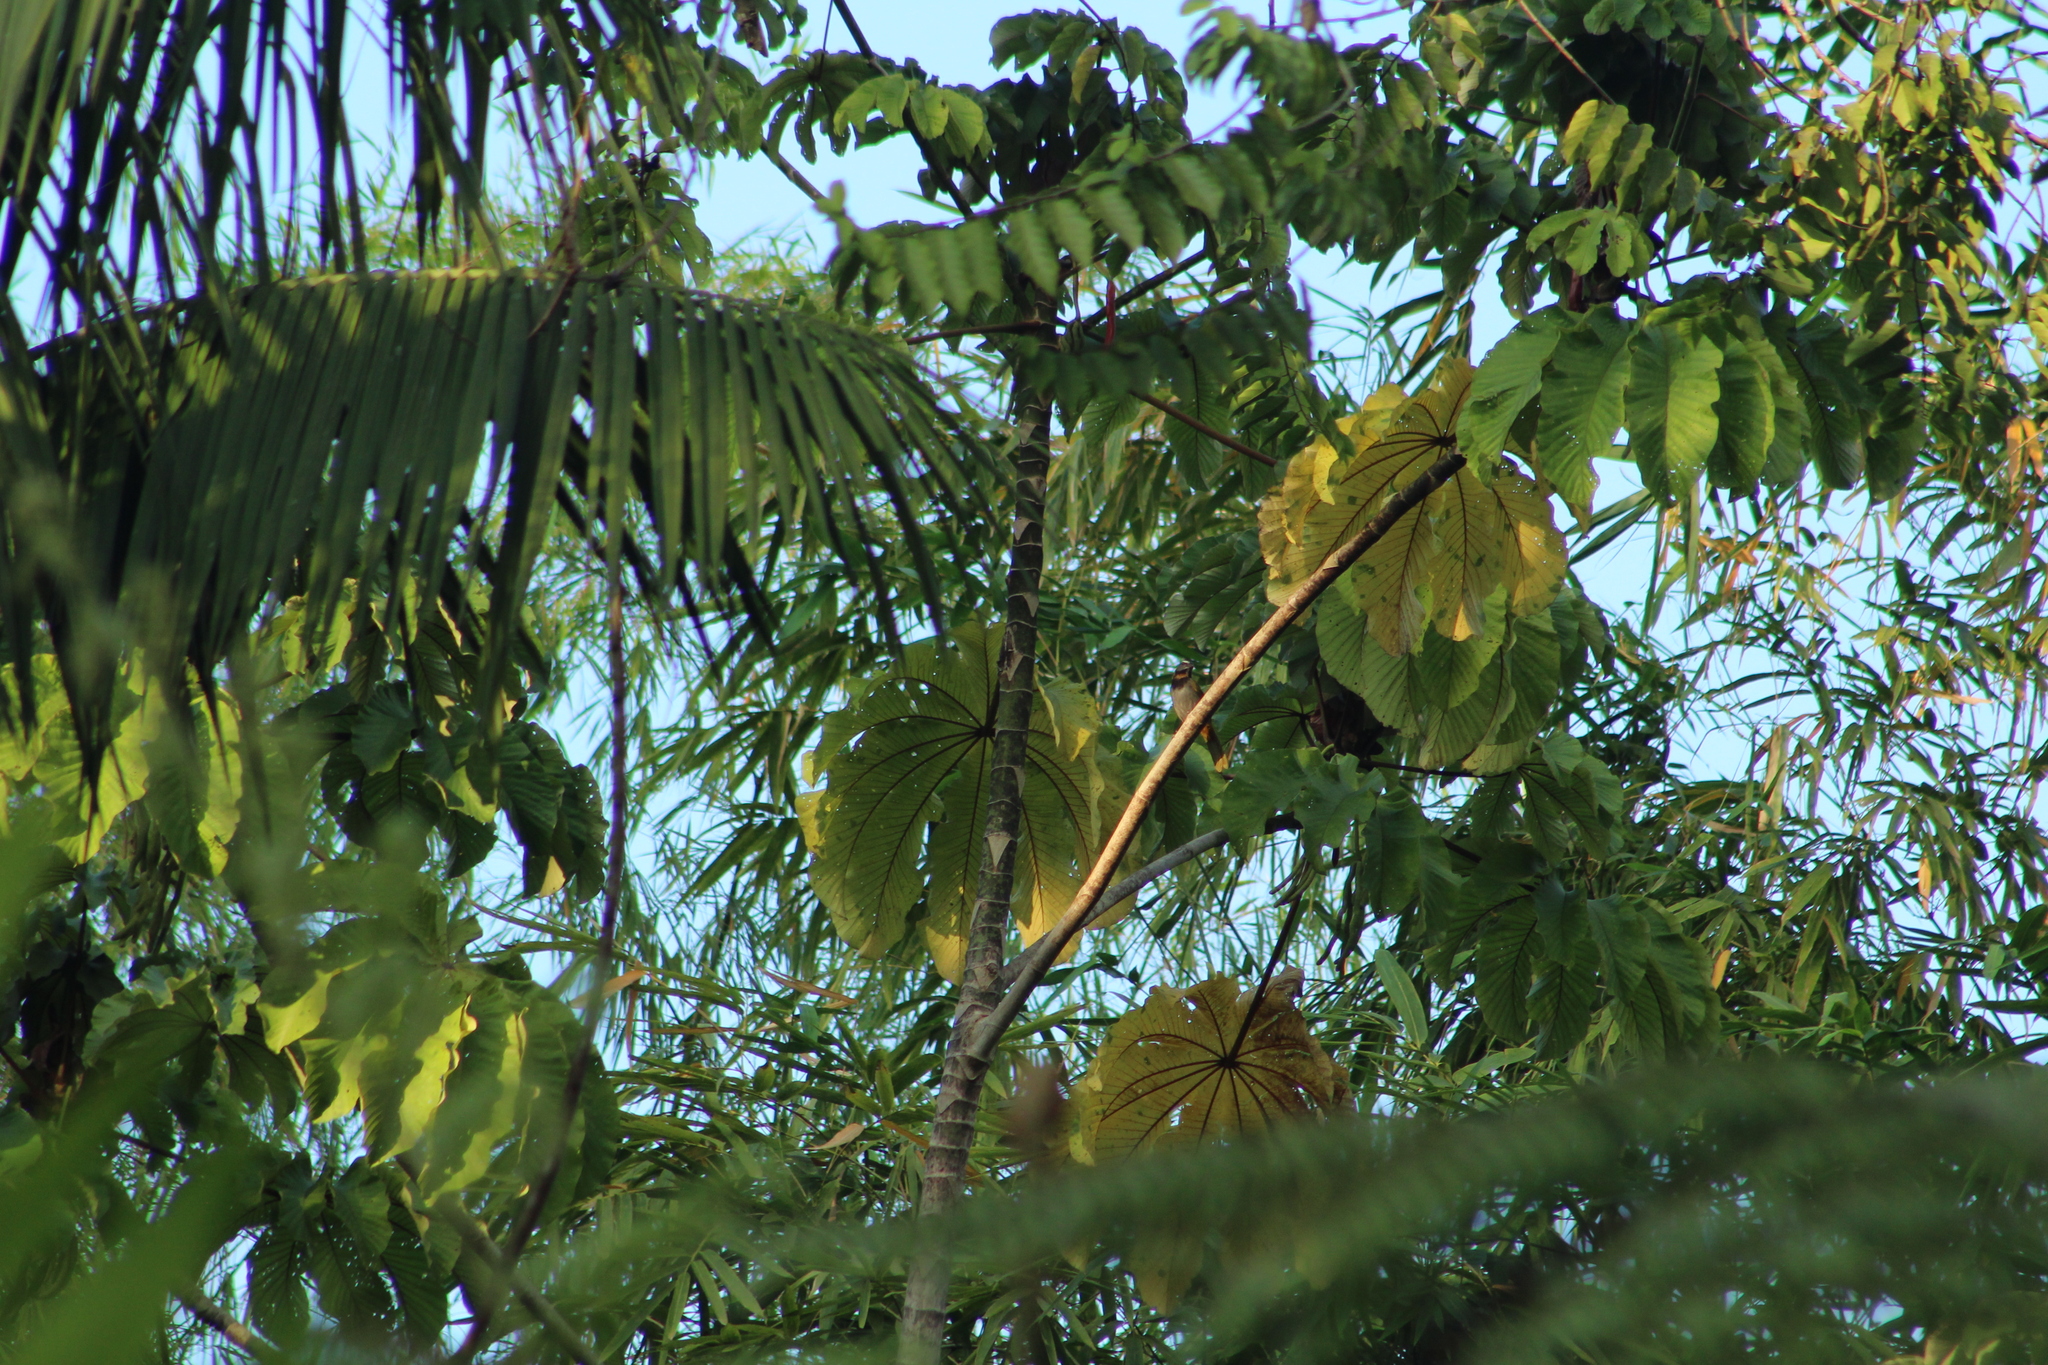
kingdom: Animalia
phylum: Chordata
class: Aves
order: Passeriformes
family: Thraupidae
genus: Saltator
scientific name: Saltator maximus
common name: Buff-throated saltator
